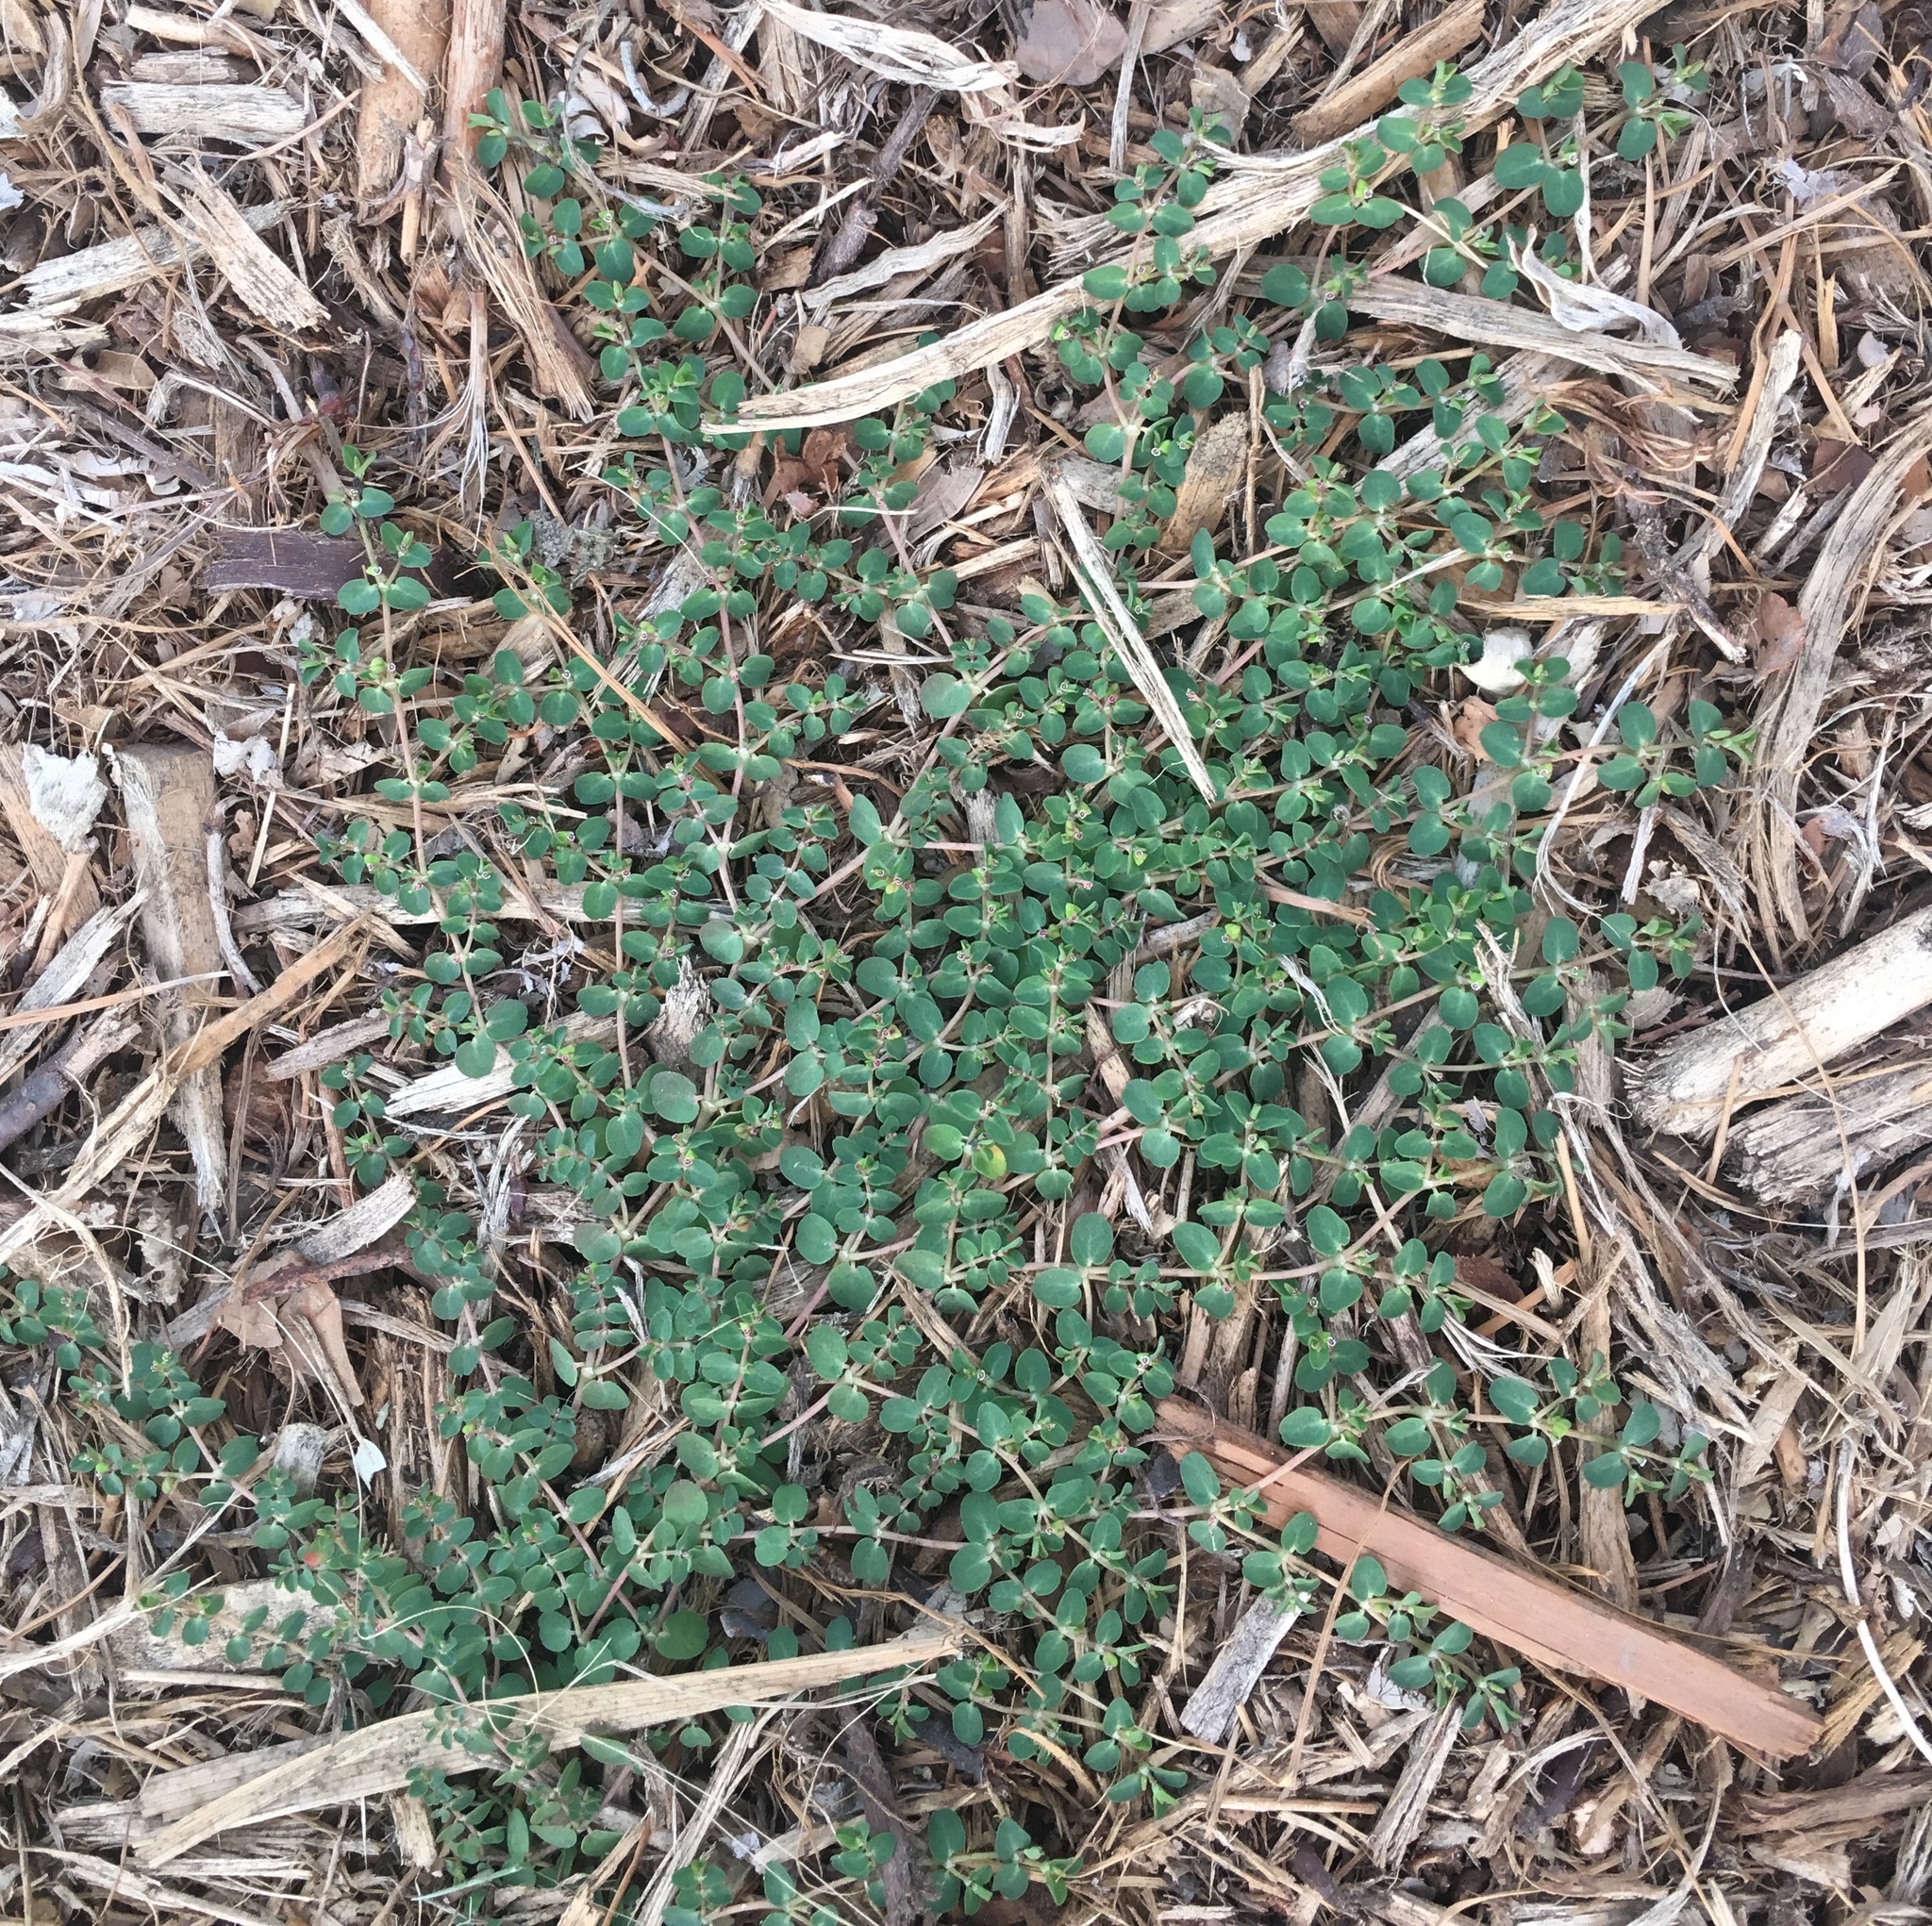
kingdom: Plantae
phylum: Tracheophyta
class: Magnoliopsida
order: Malpighiales
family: Euphorbiaceae
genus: Euphorbia
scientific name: Euphorbia serpens
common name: Matted sandmat
